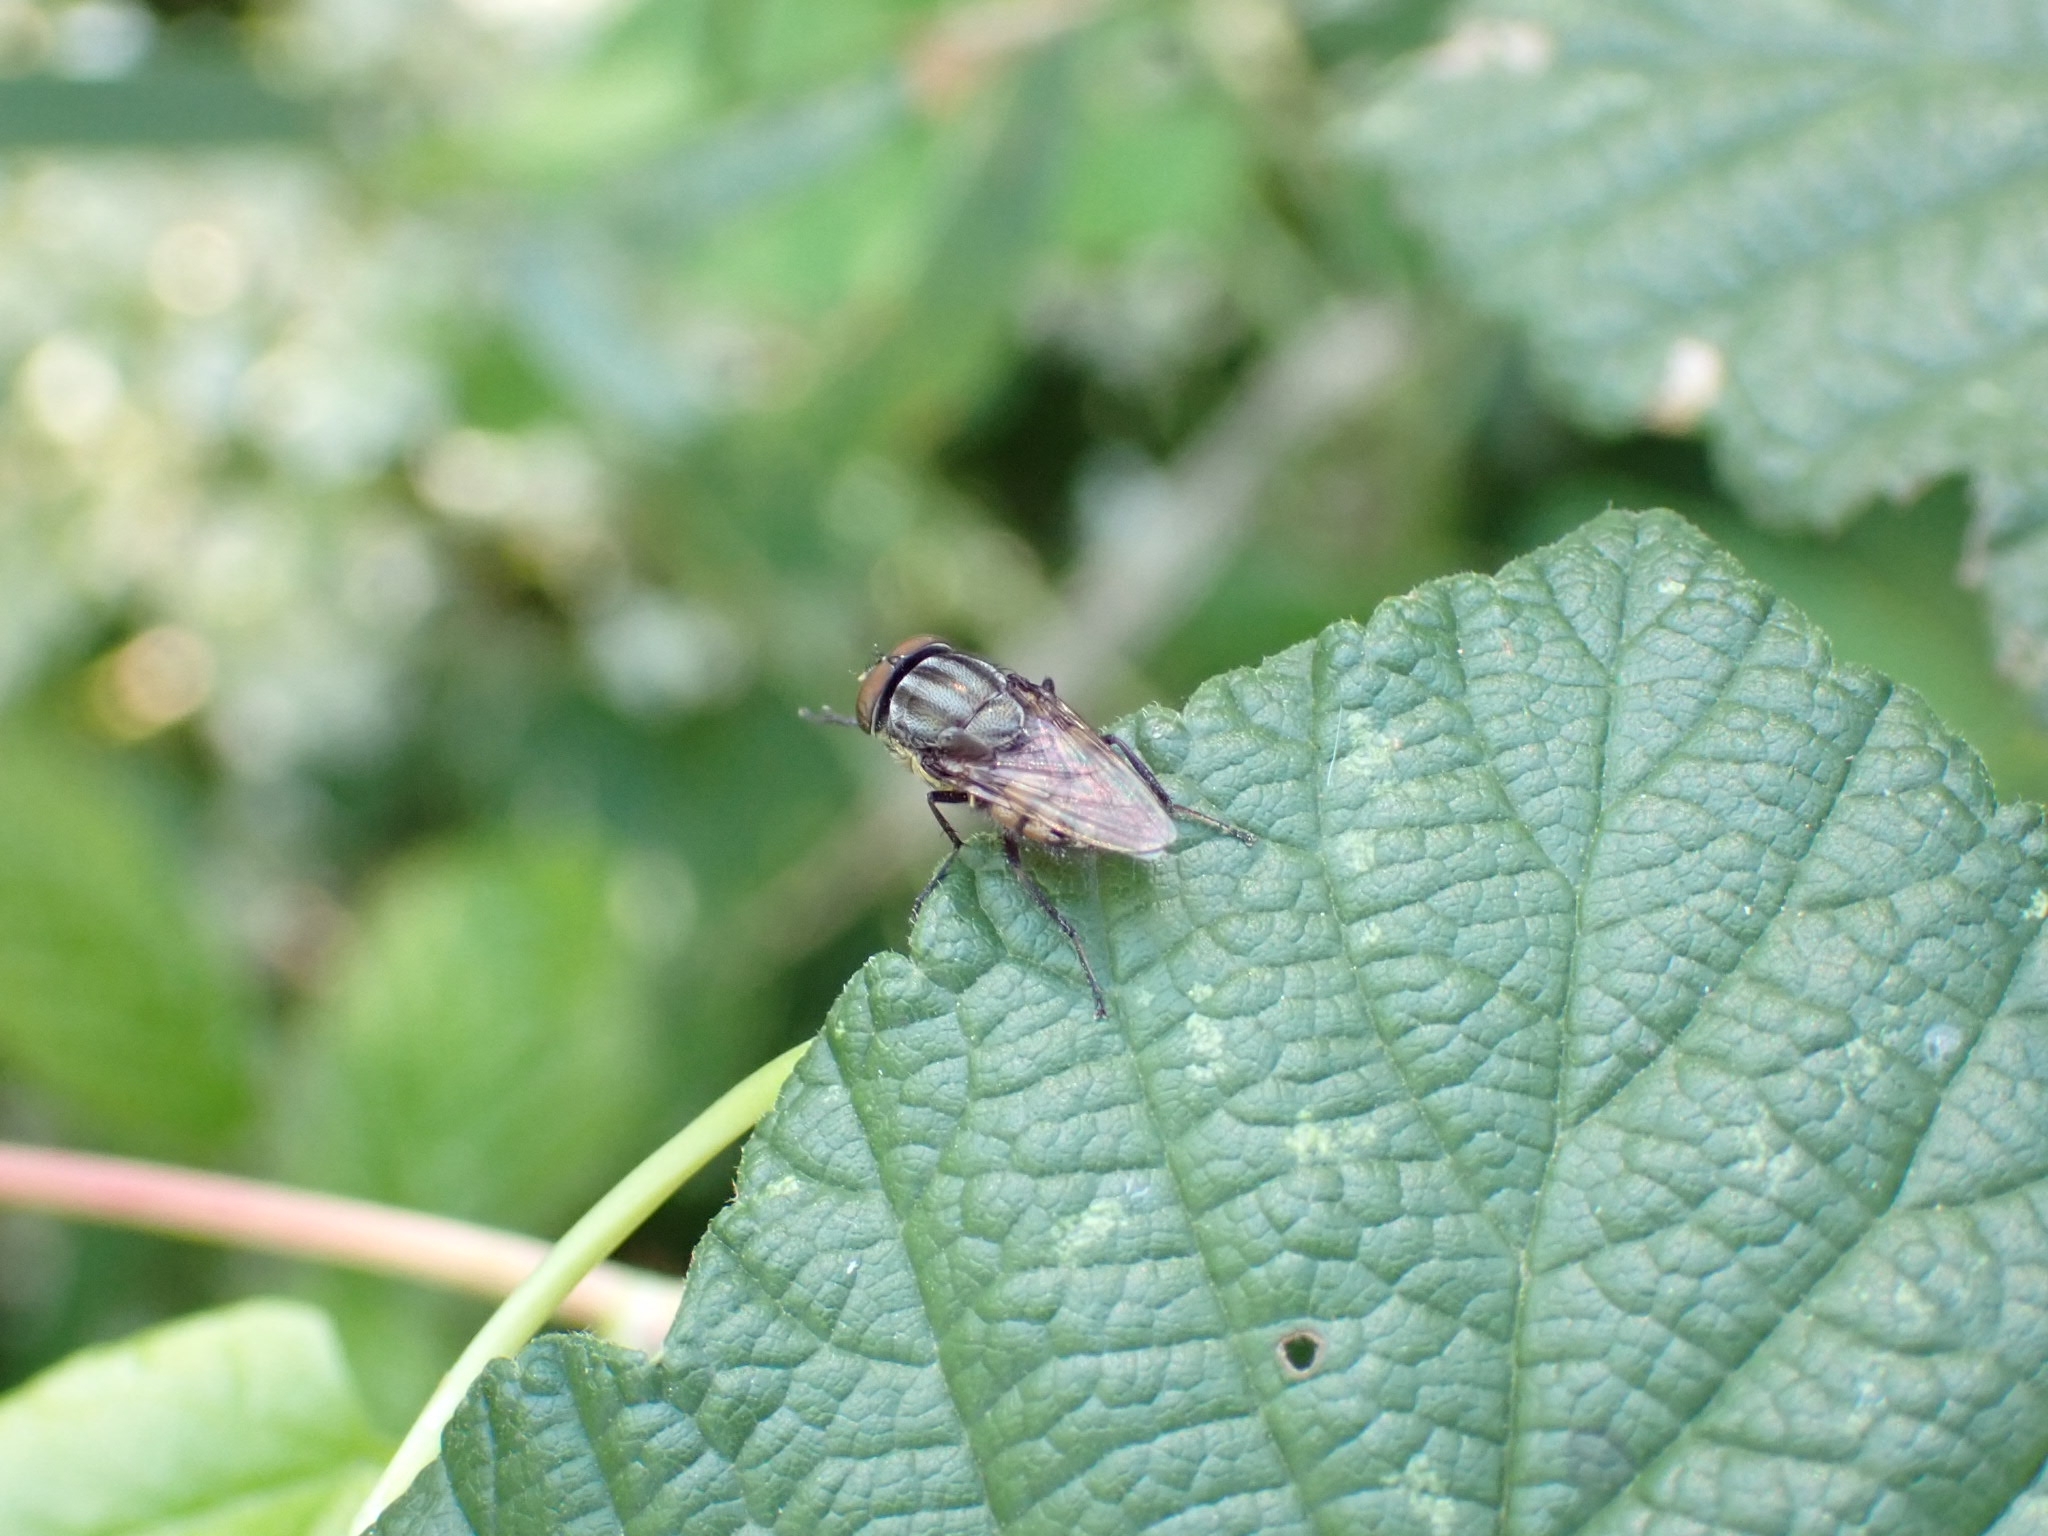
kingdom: Animalia
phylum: Arthropoda
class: Insecta
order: Diptera
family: Calliphoridae
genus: Stomorhina
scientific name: Stomorhina lunata
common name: Locust blowfly
